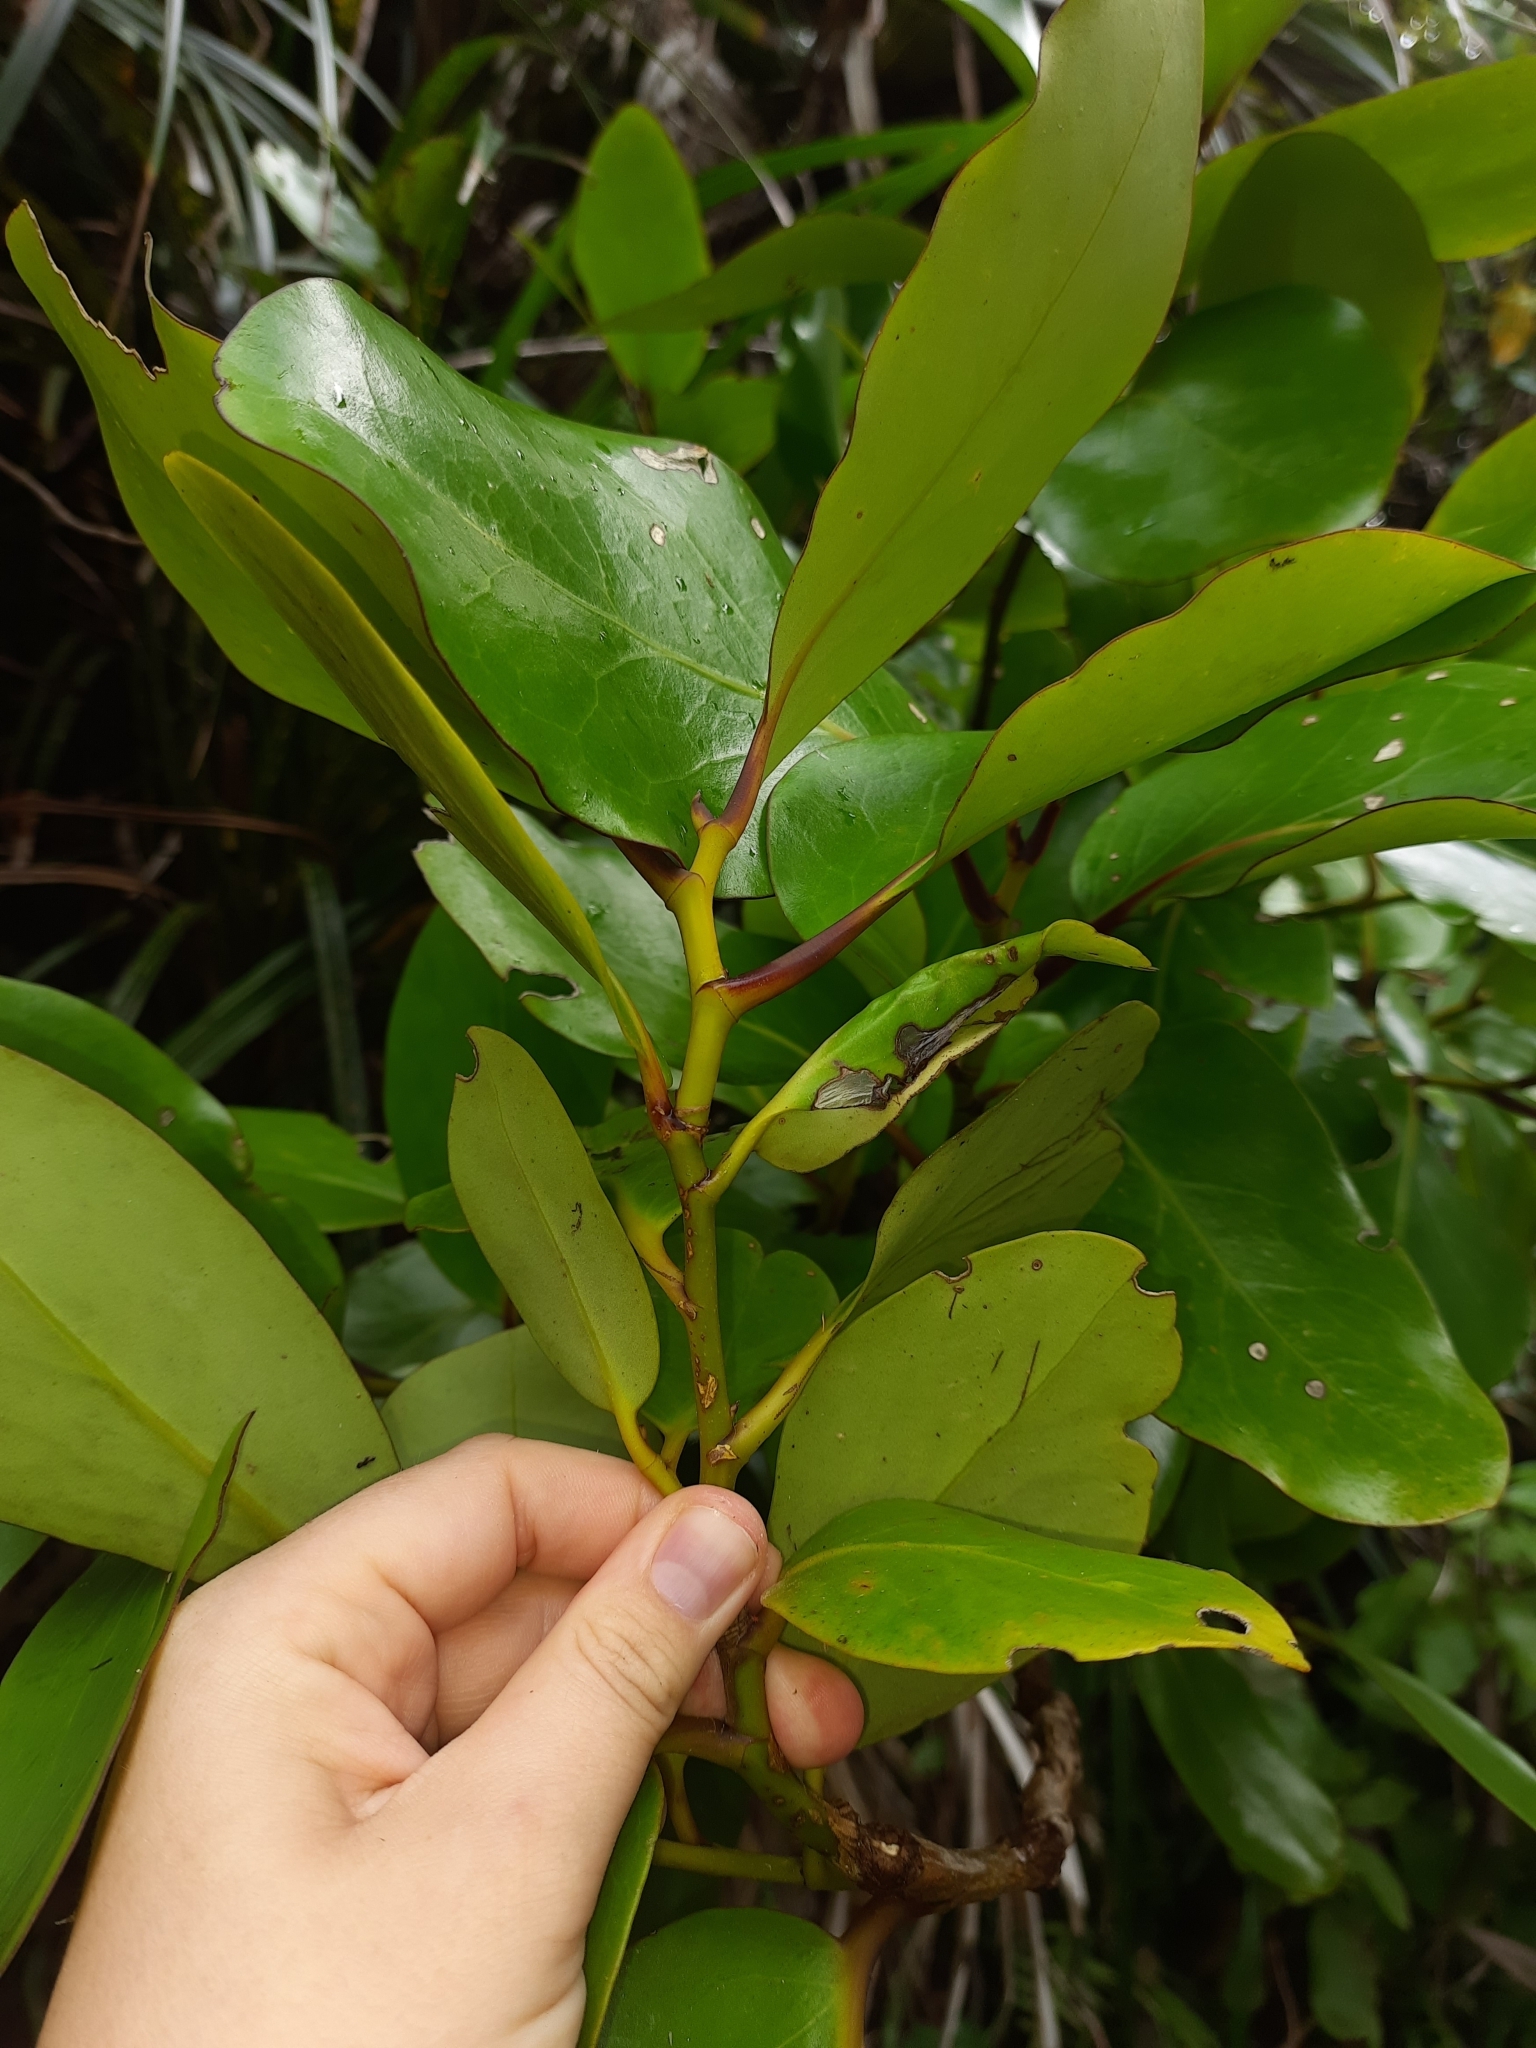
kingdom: Plantae
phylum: Tracheophyta
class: Magnoliopsida
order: Apiales
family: Griseliniaceae
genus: Griselinia
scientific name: Griselinia lucida
